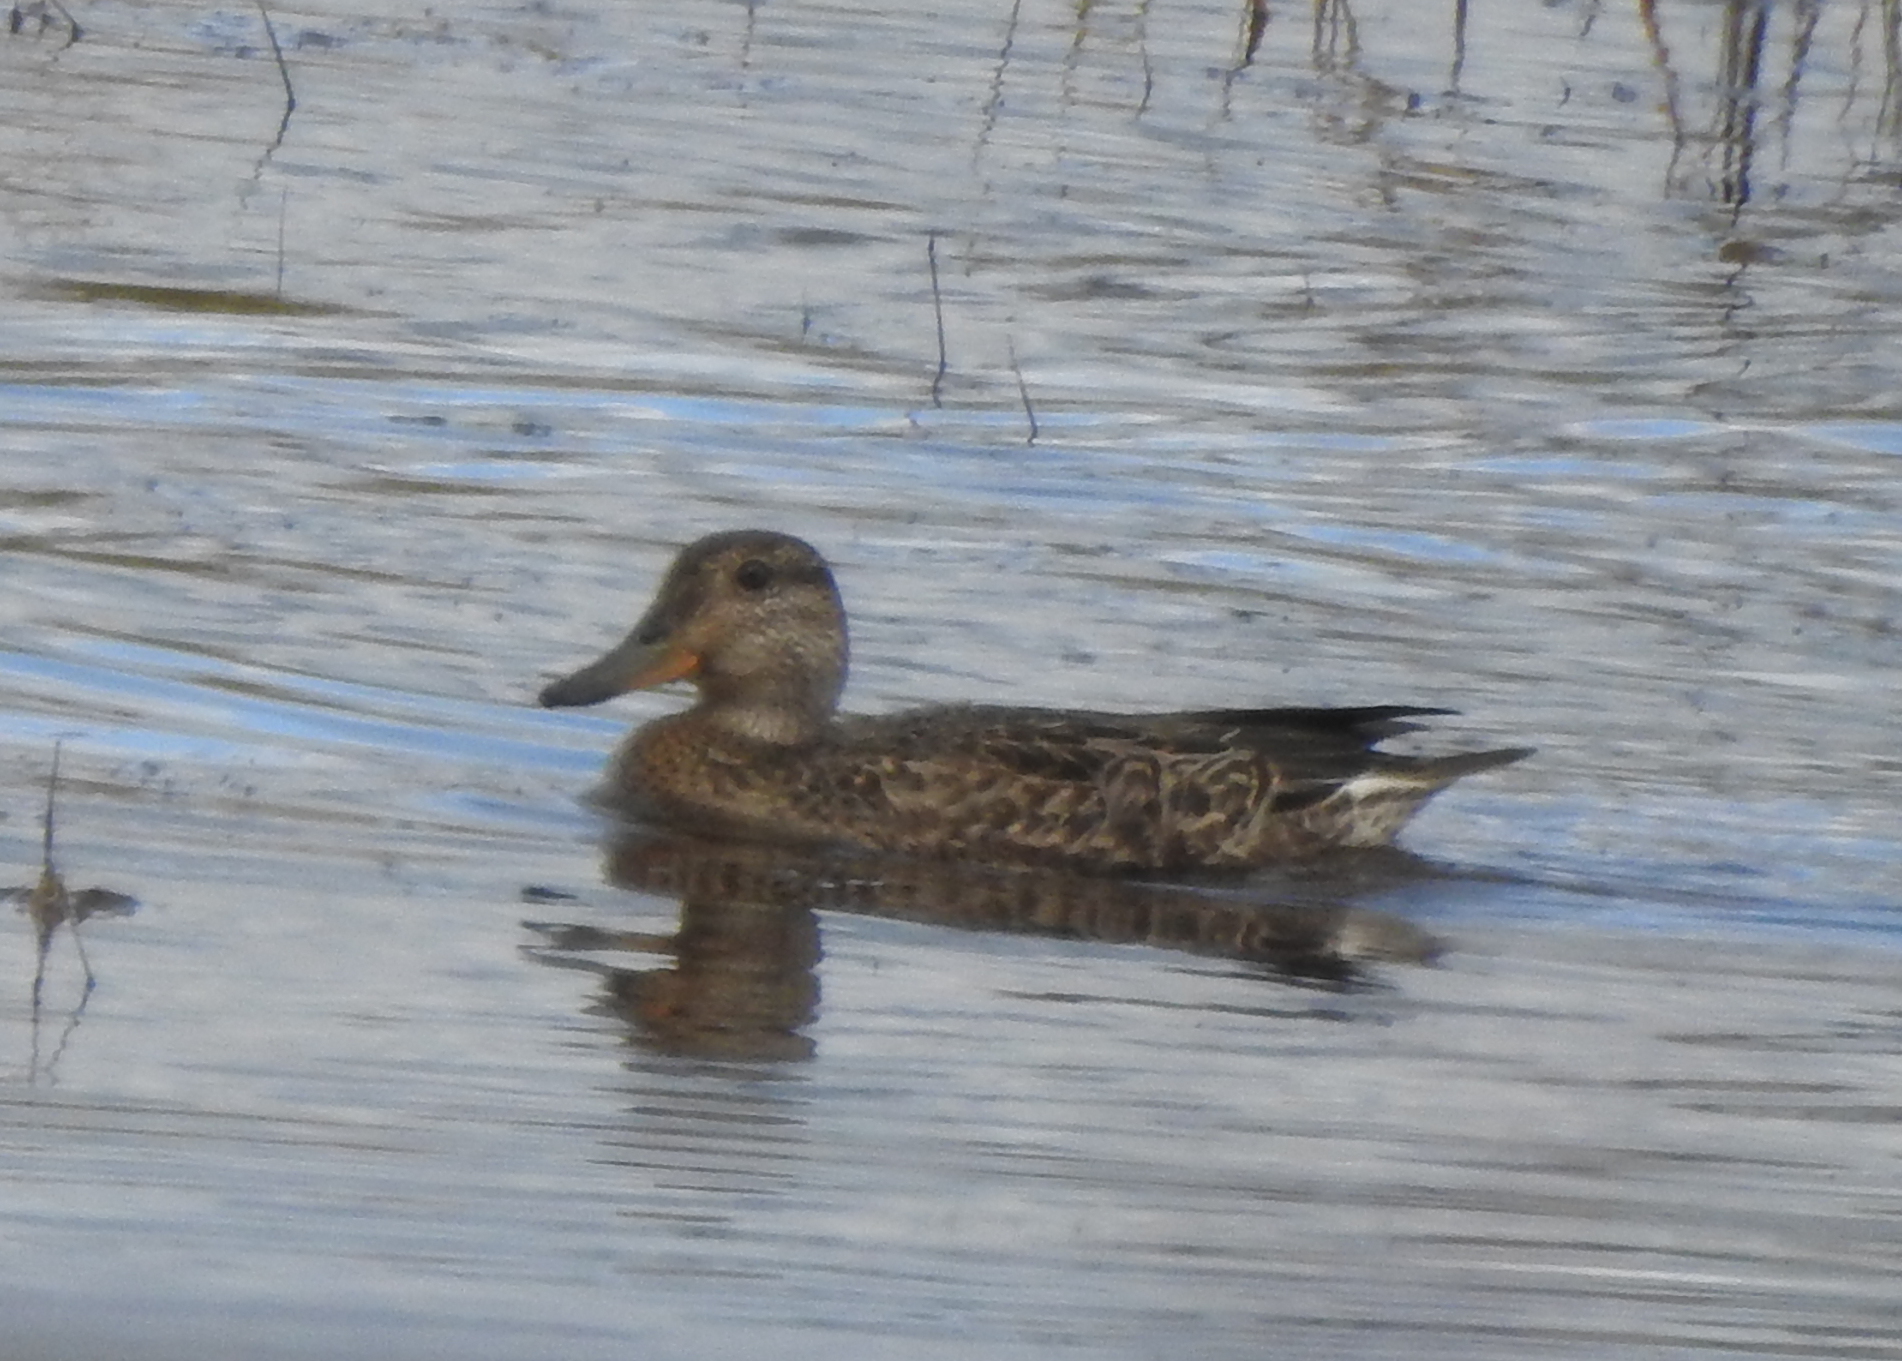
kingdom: Animalia
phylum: Chordata
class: Aves
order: Anseriformes
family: Anatidae
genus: Anas
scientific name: Anas crecca
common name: Eurasian teal
